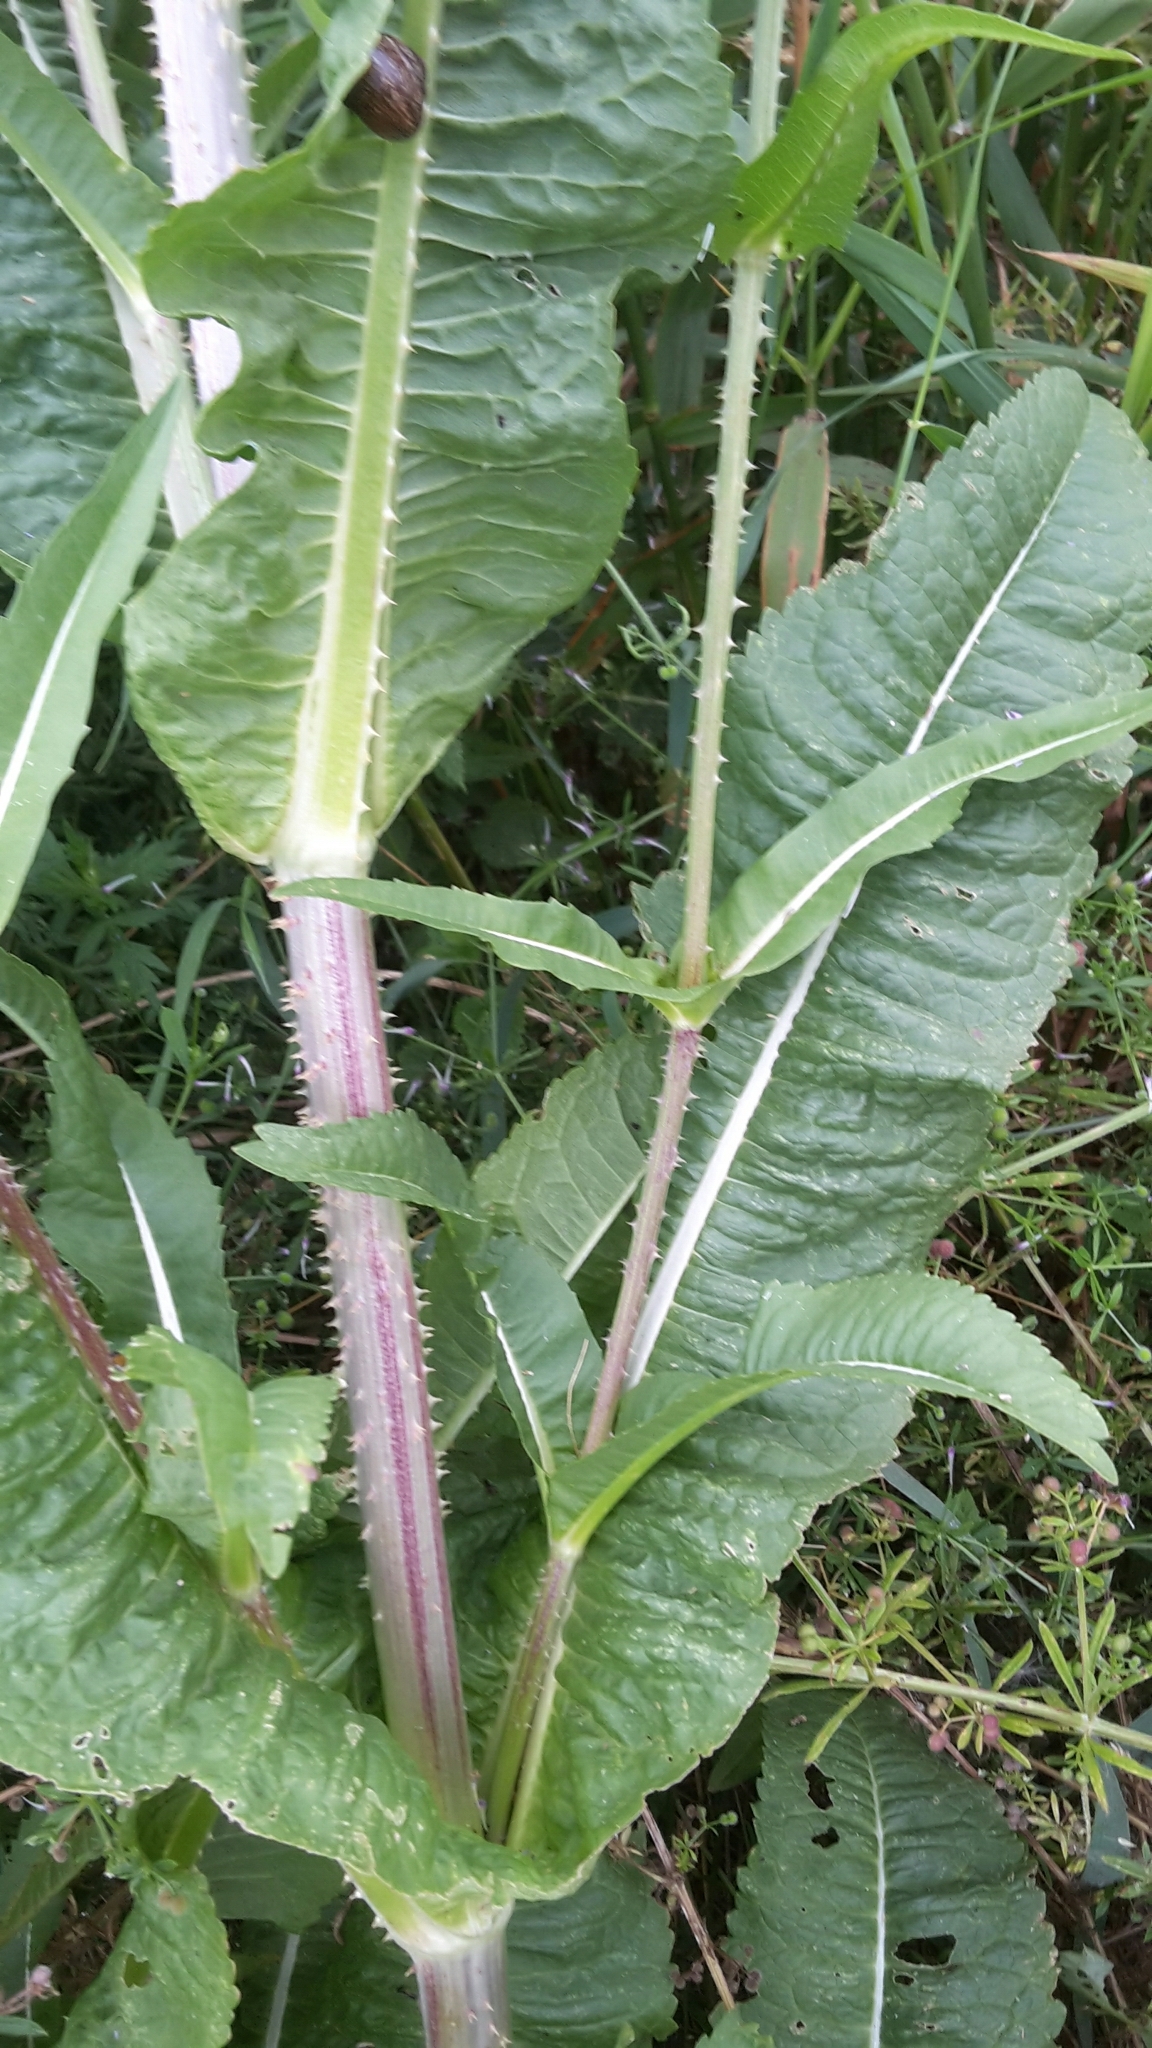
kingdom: Plantae
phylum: Tracheophyta
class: Magnoliopsida
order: Dipsacales
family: Caprifoliaceae
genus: Dipsacus
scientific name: Dipsacus fullonum
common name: Teasel
